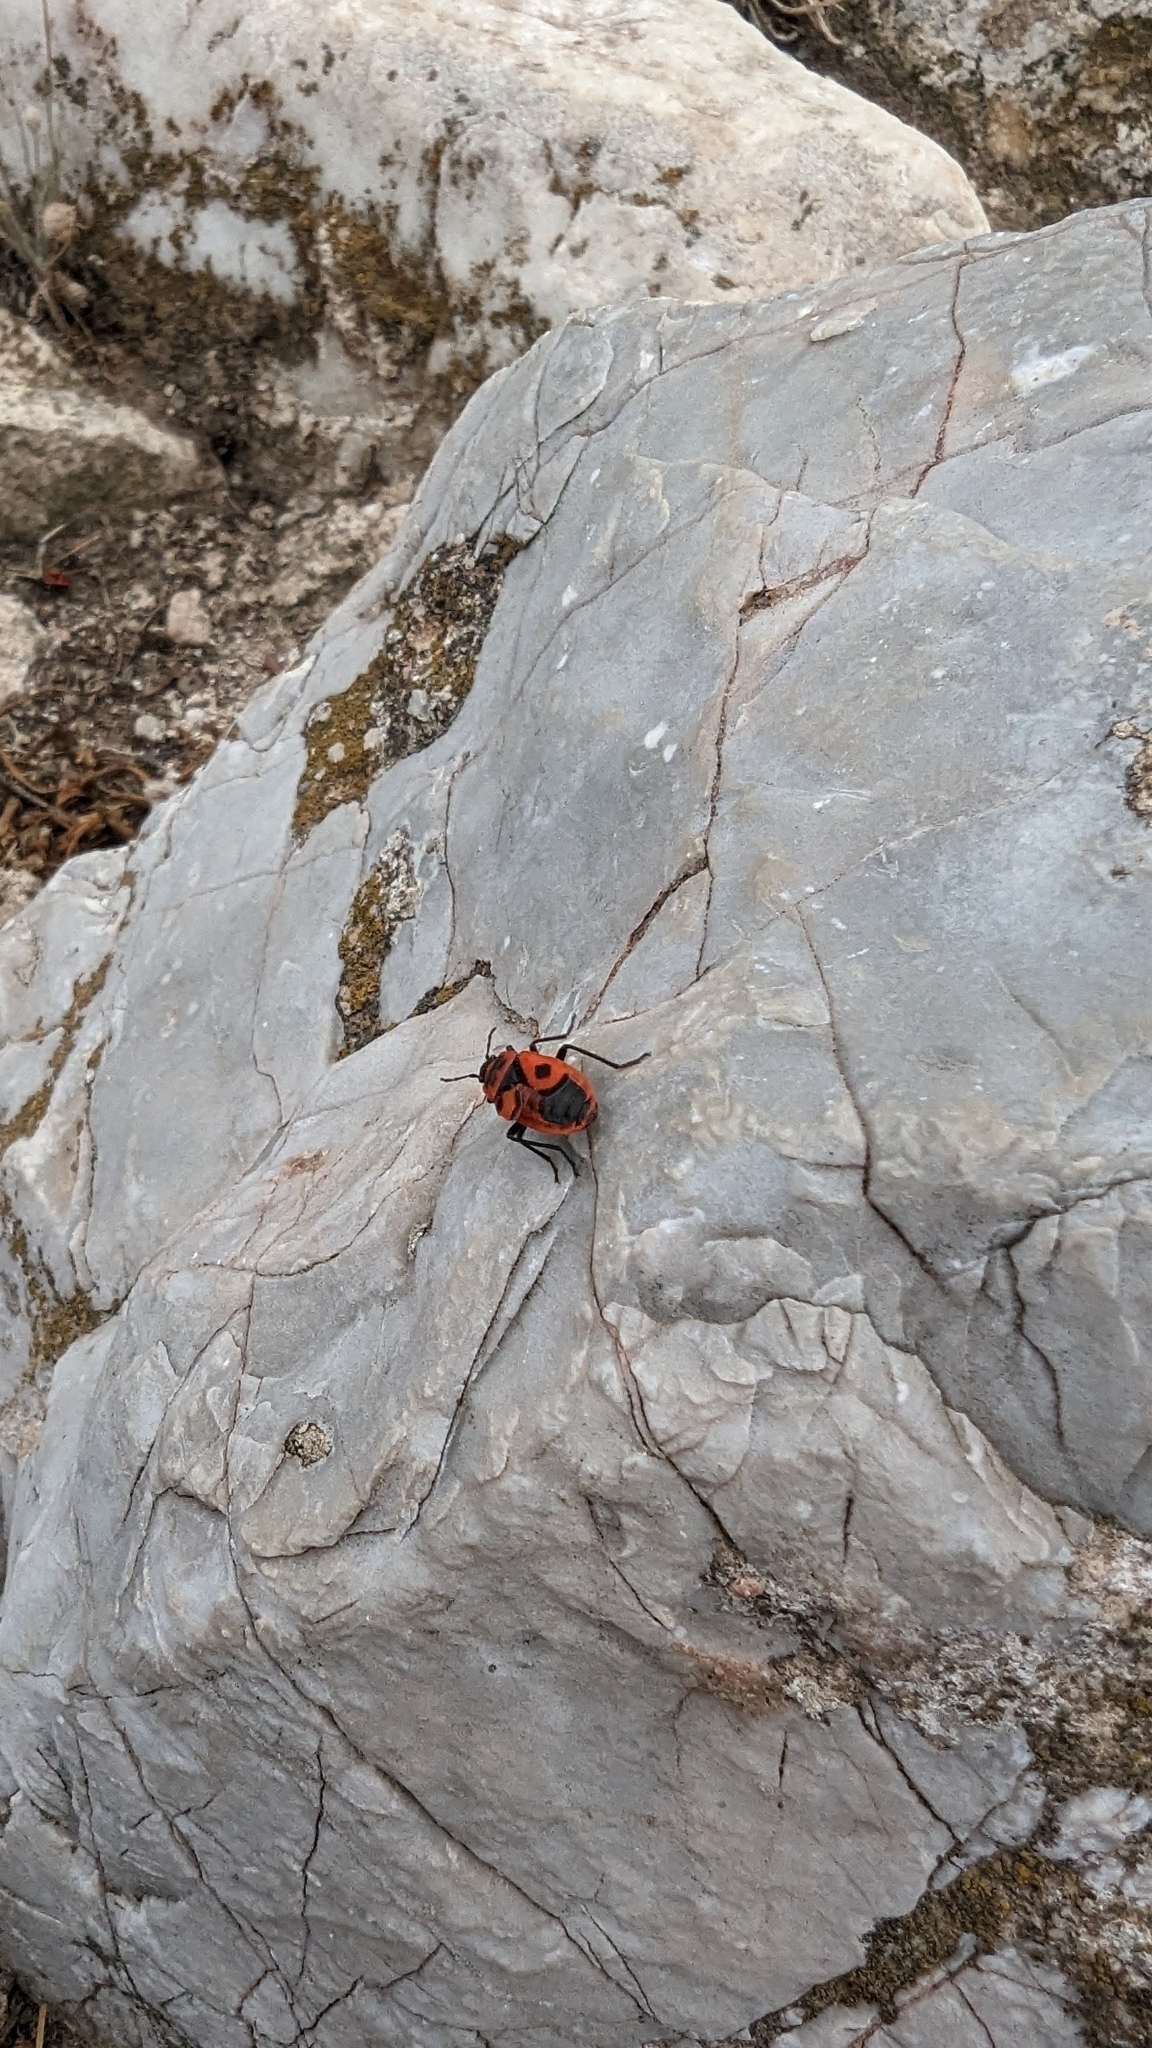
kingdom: Animalia
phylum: Arthropoda
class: Insecta
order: Hemiptera
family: Pyrrhocoridae
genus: Pyrrhocoris
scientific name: Pyrrhocoris apterus
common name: Firebug
